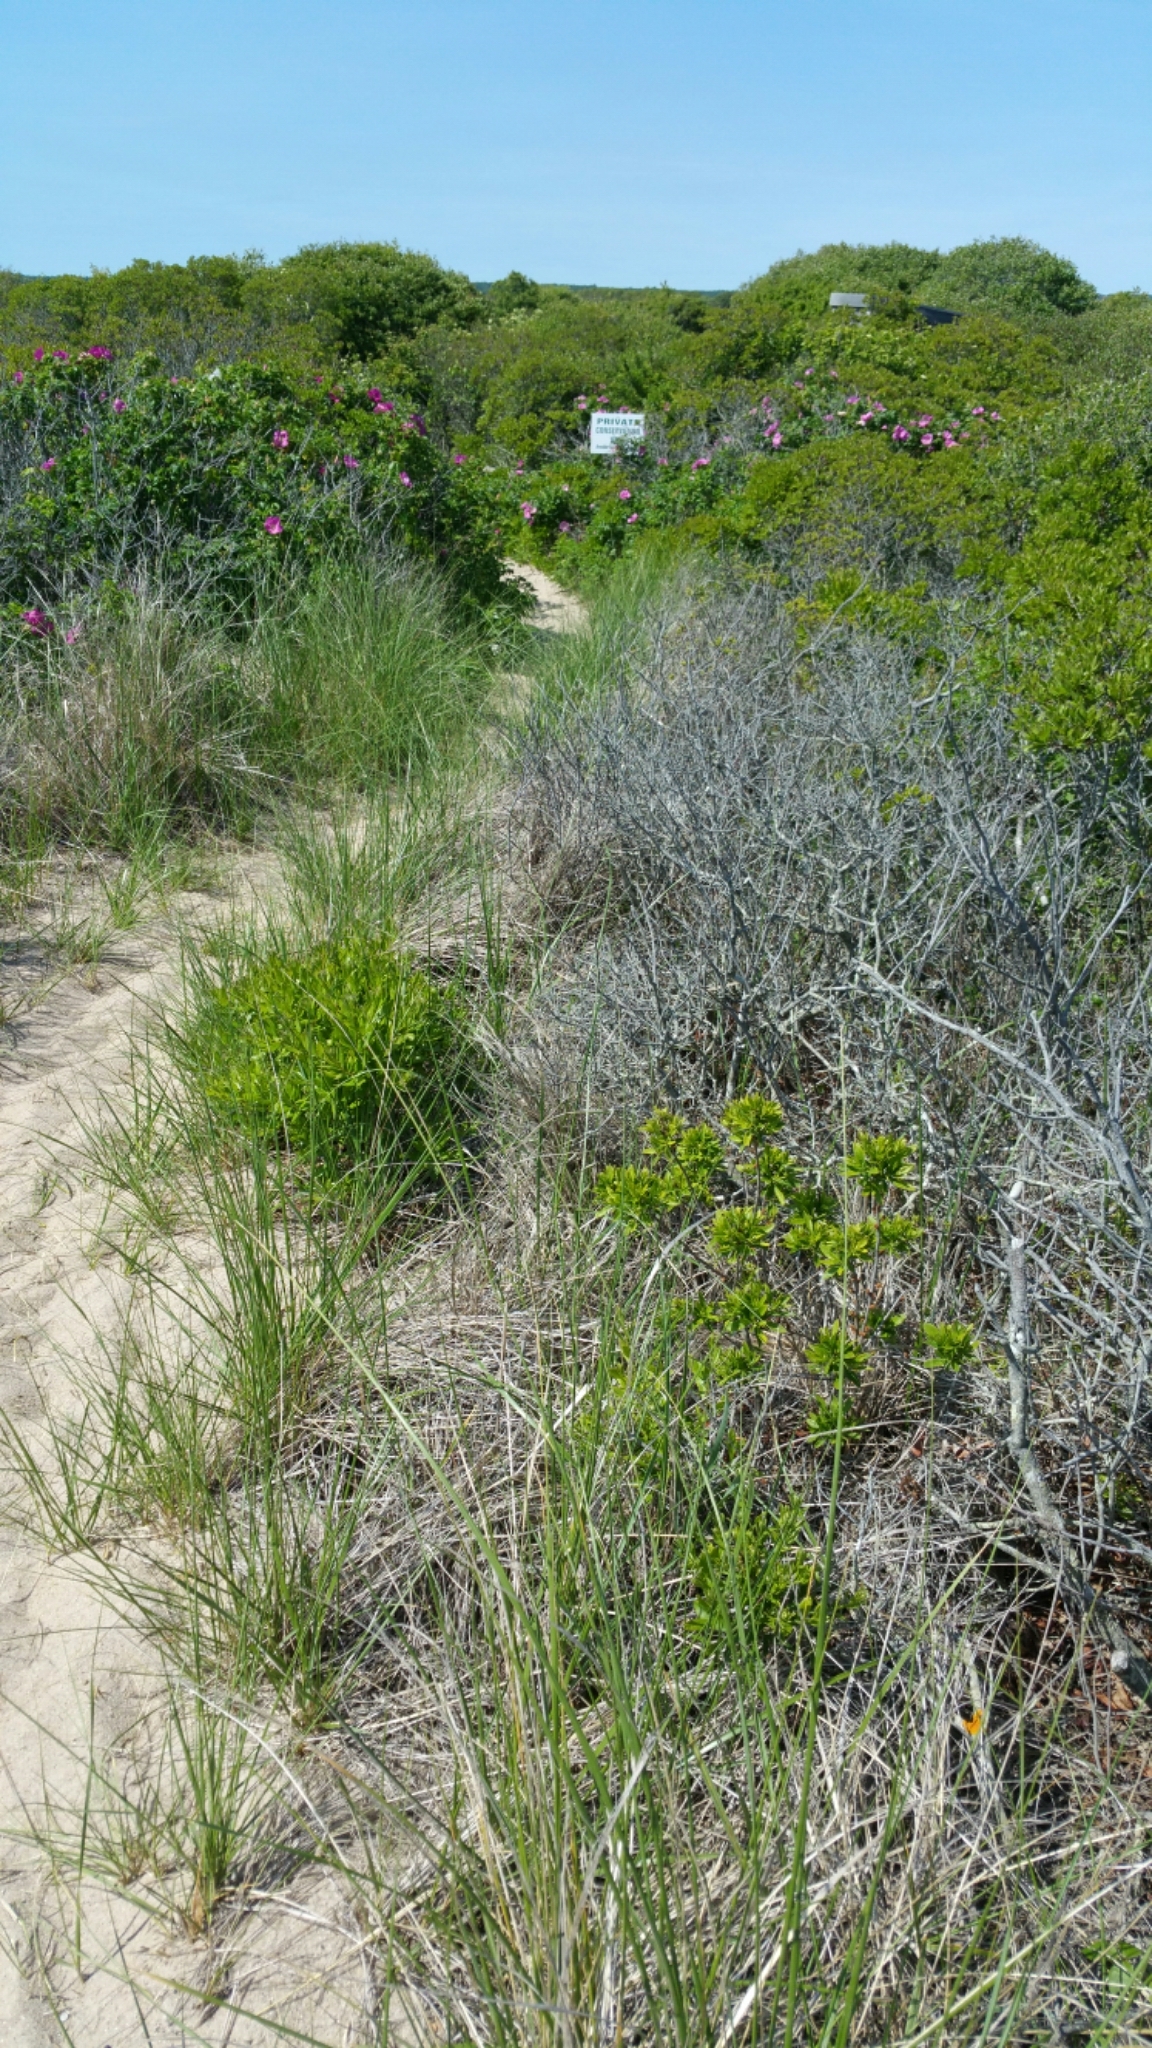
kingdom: Plantae
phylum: Tracheophyta
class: Magnoliopsida
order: Rosales
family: Rosaceae
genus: Rosa
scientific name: Rosa rugosa
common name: Japanese rose
